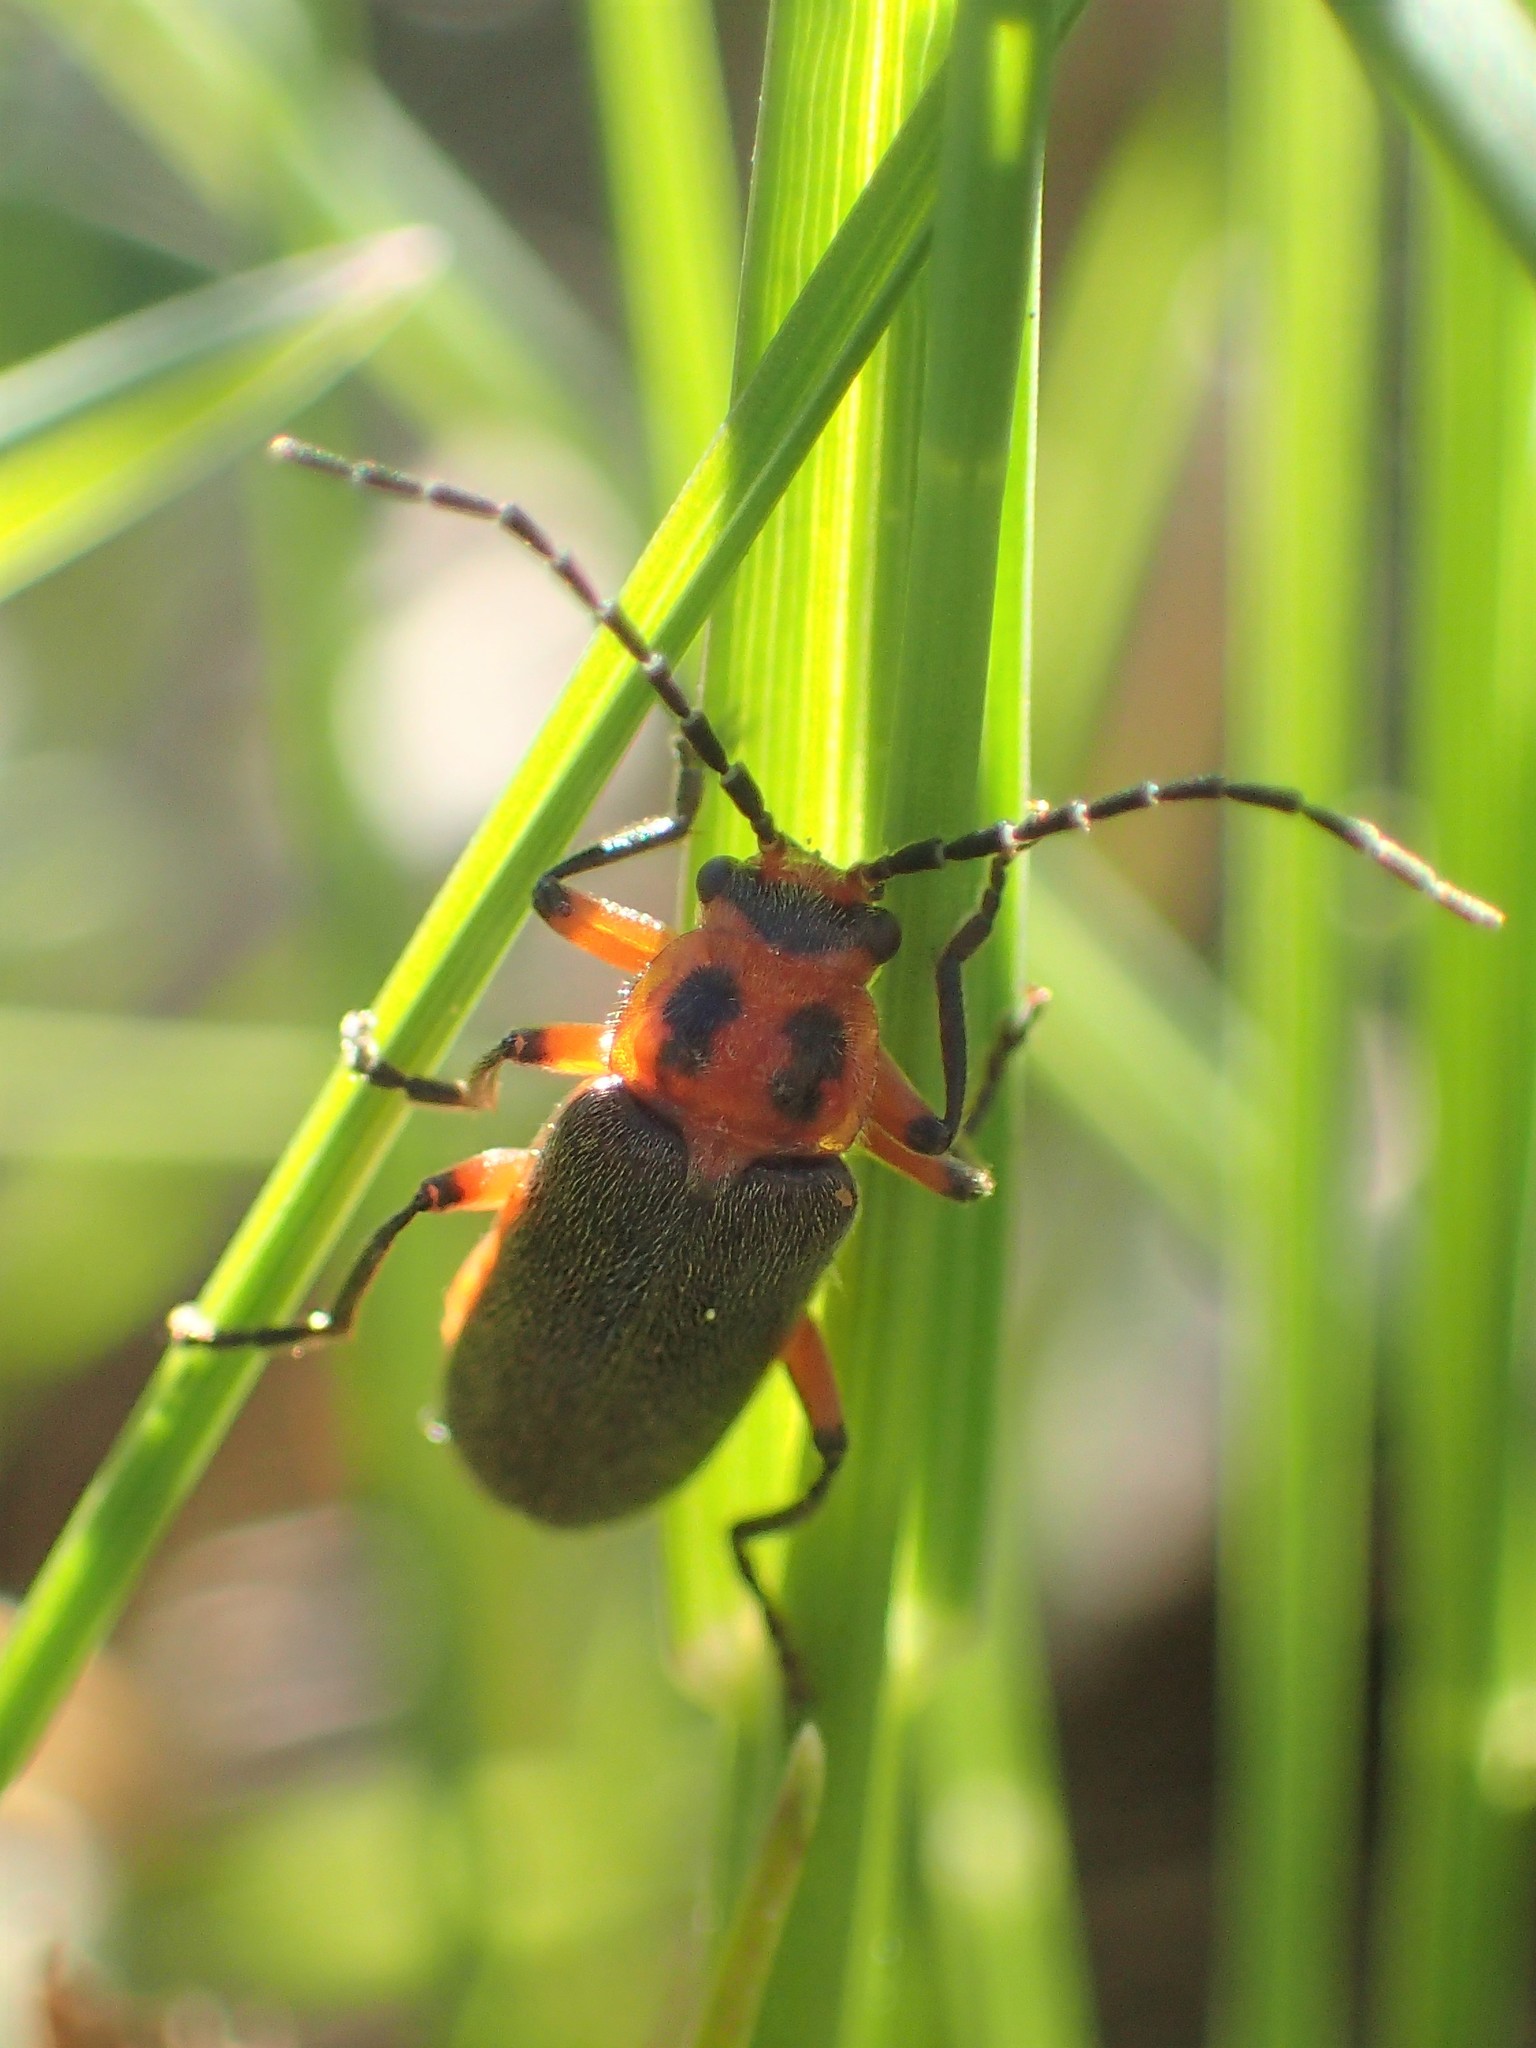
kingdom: Animalia
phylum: Arthropoda
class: Insecta
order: Coleoptera
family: Cantharidae
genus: Atalantycha
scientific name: Atalantycha bilineata
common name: Two-lined leatherwing
